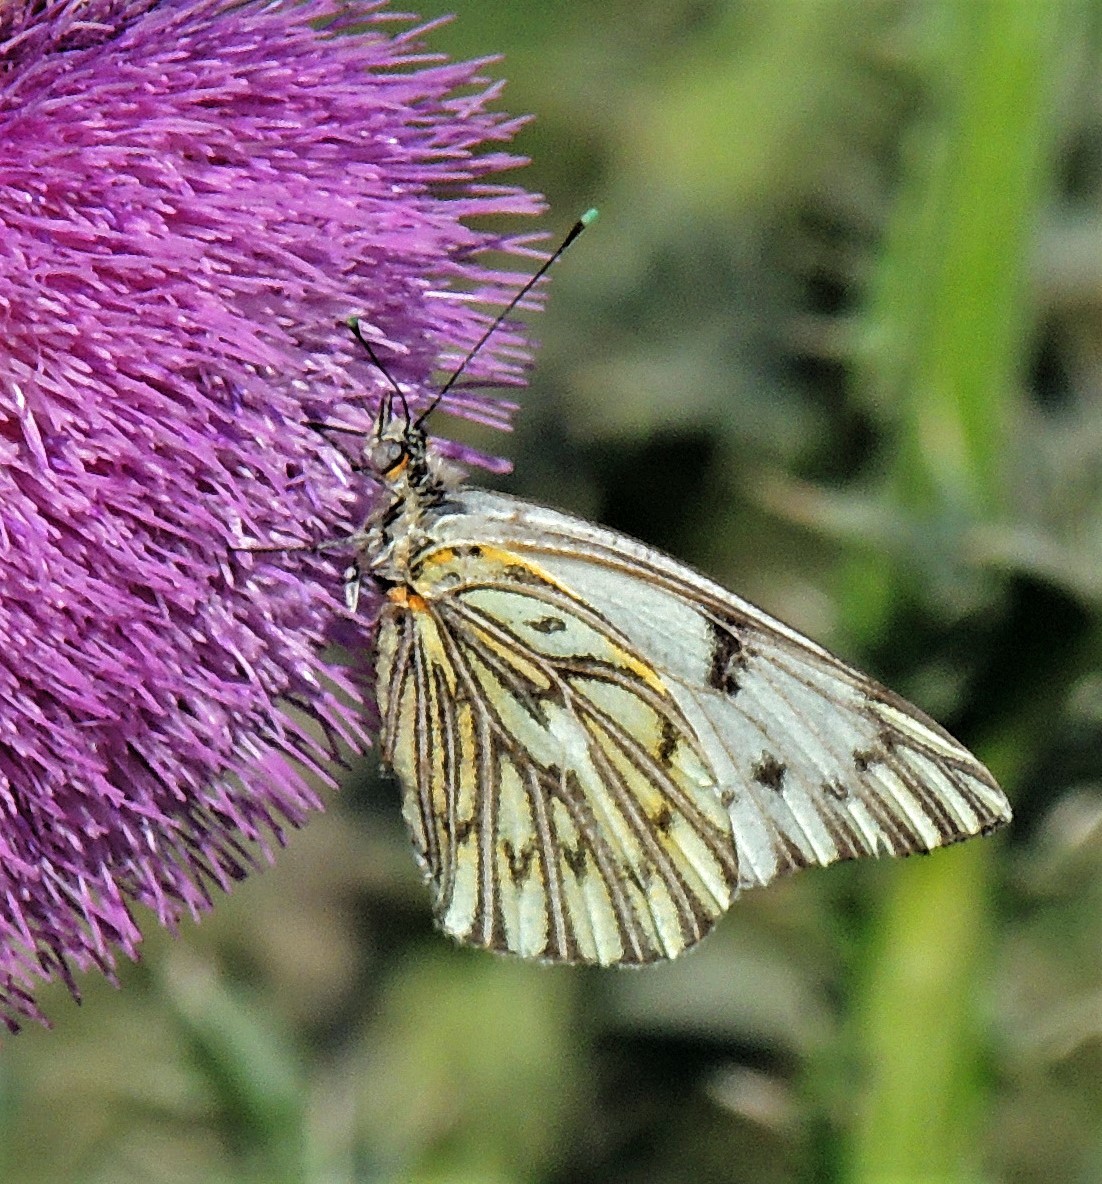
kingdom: Animalia
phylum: Arthropoda
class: Insecta
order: Lepidoptera
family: Pieridae
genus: Tatochila
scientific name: Tatochila autodice
